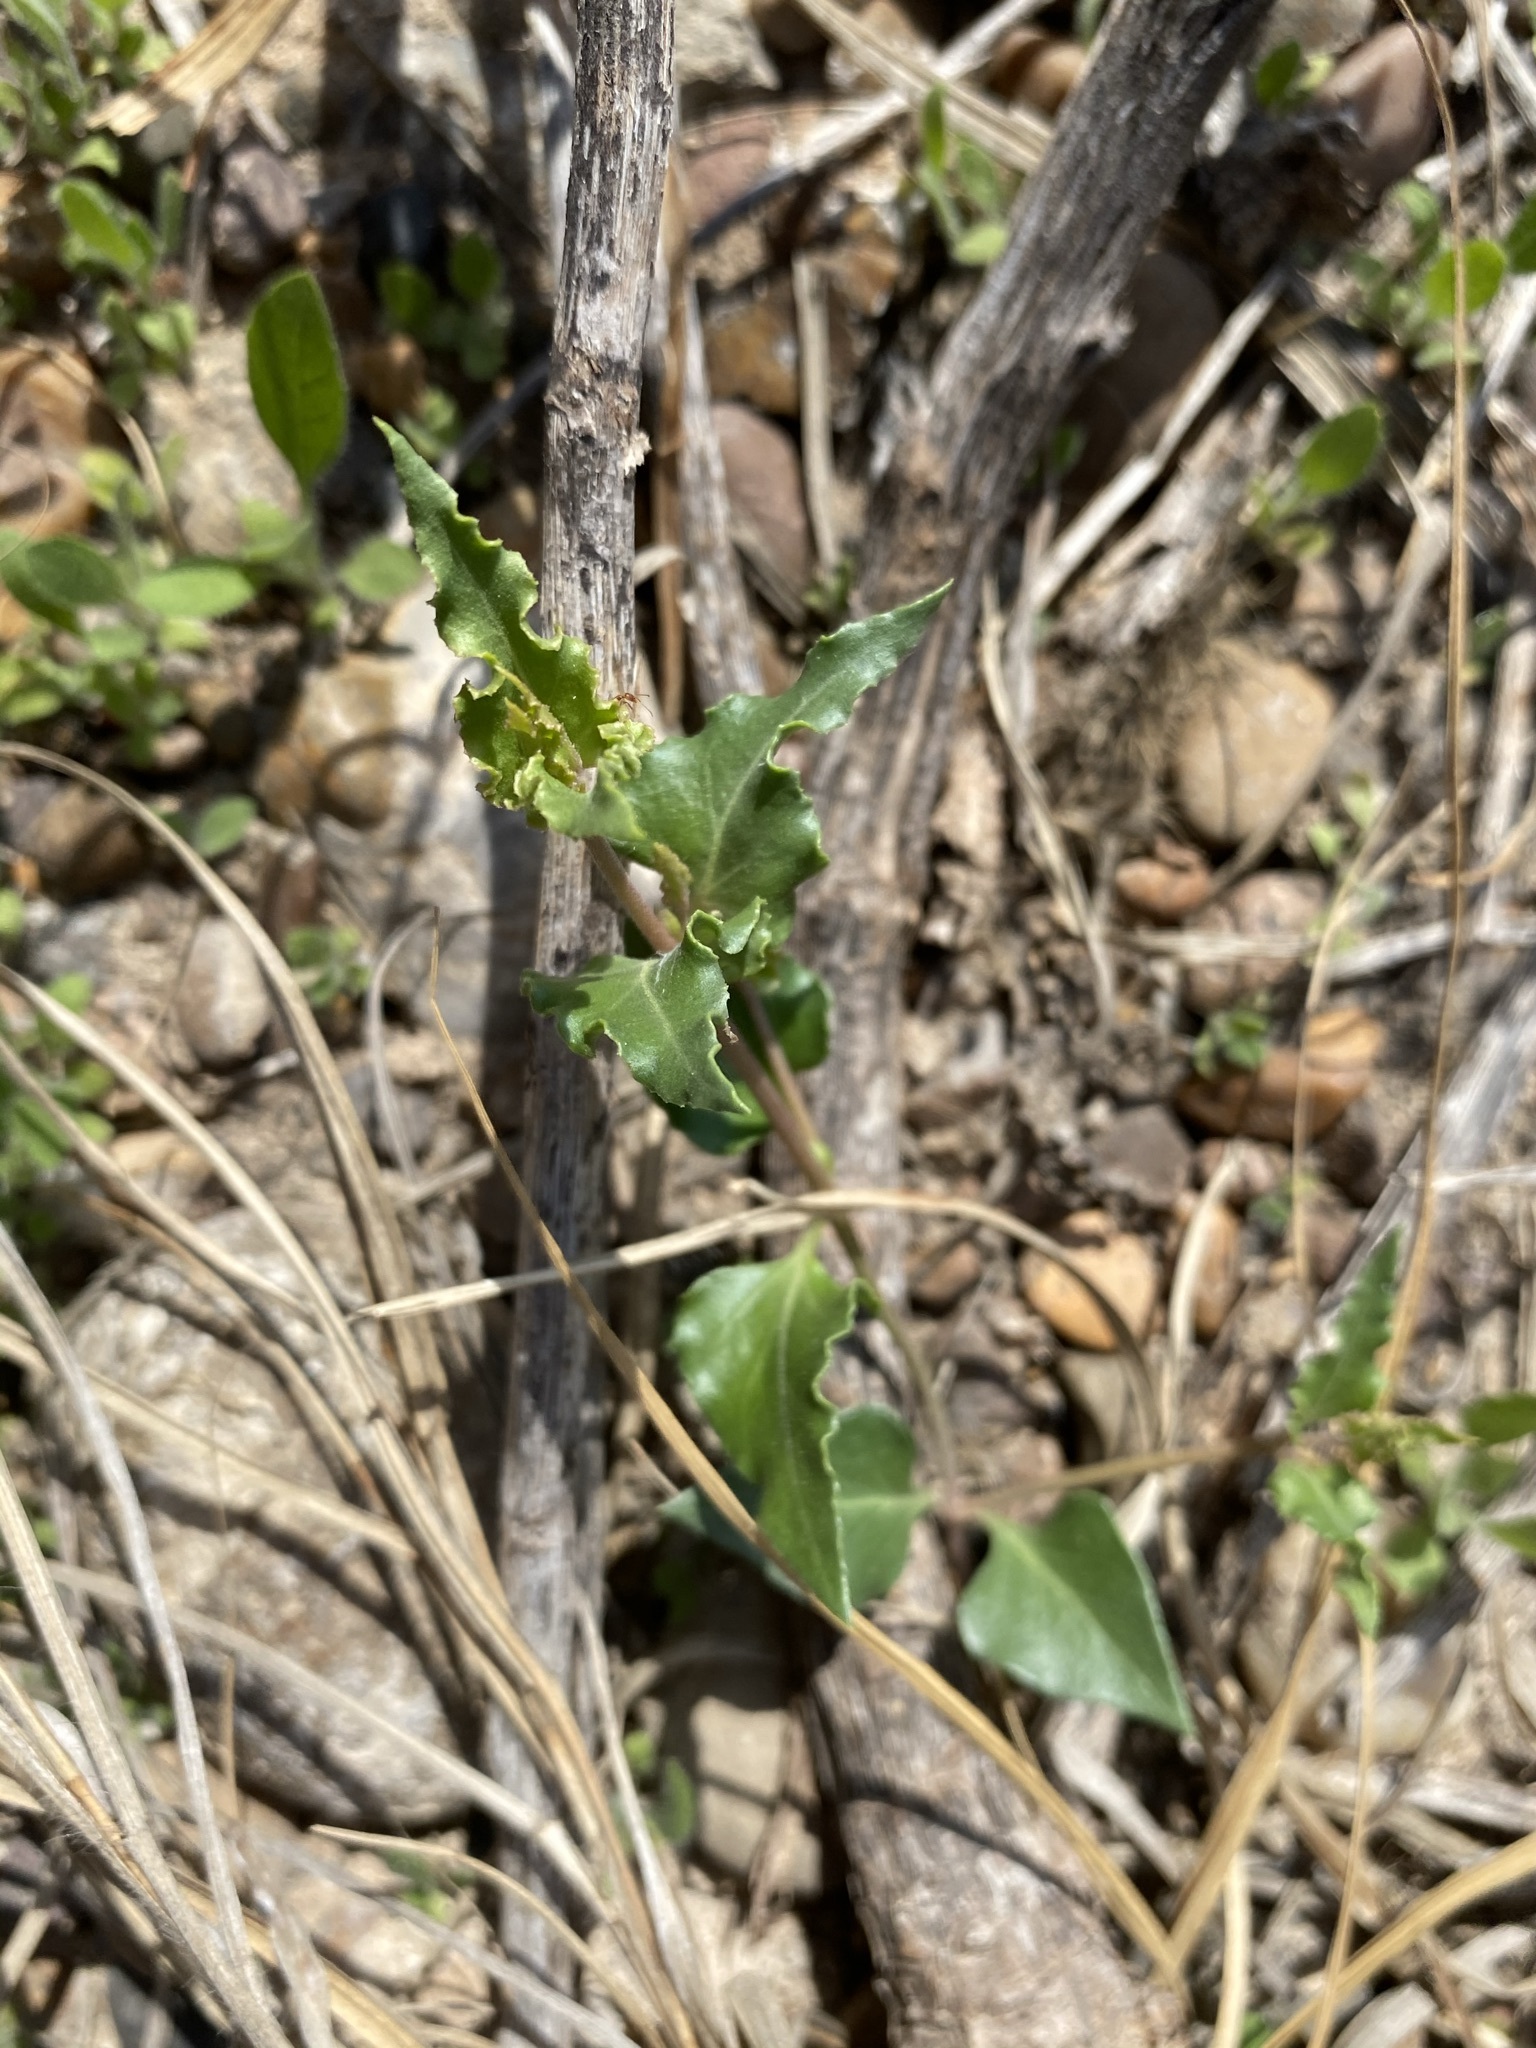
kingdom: Plantae
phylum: Tracheophyta
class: Magnoliopsida
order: Caryophyllales
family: Nyctaginaceae
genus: Acleisanthes
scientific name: Acleisanthes longiflora
